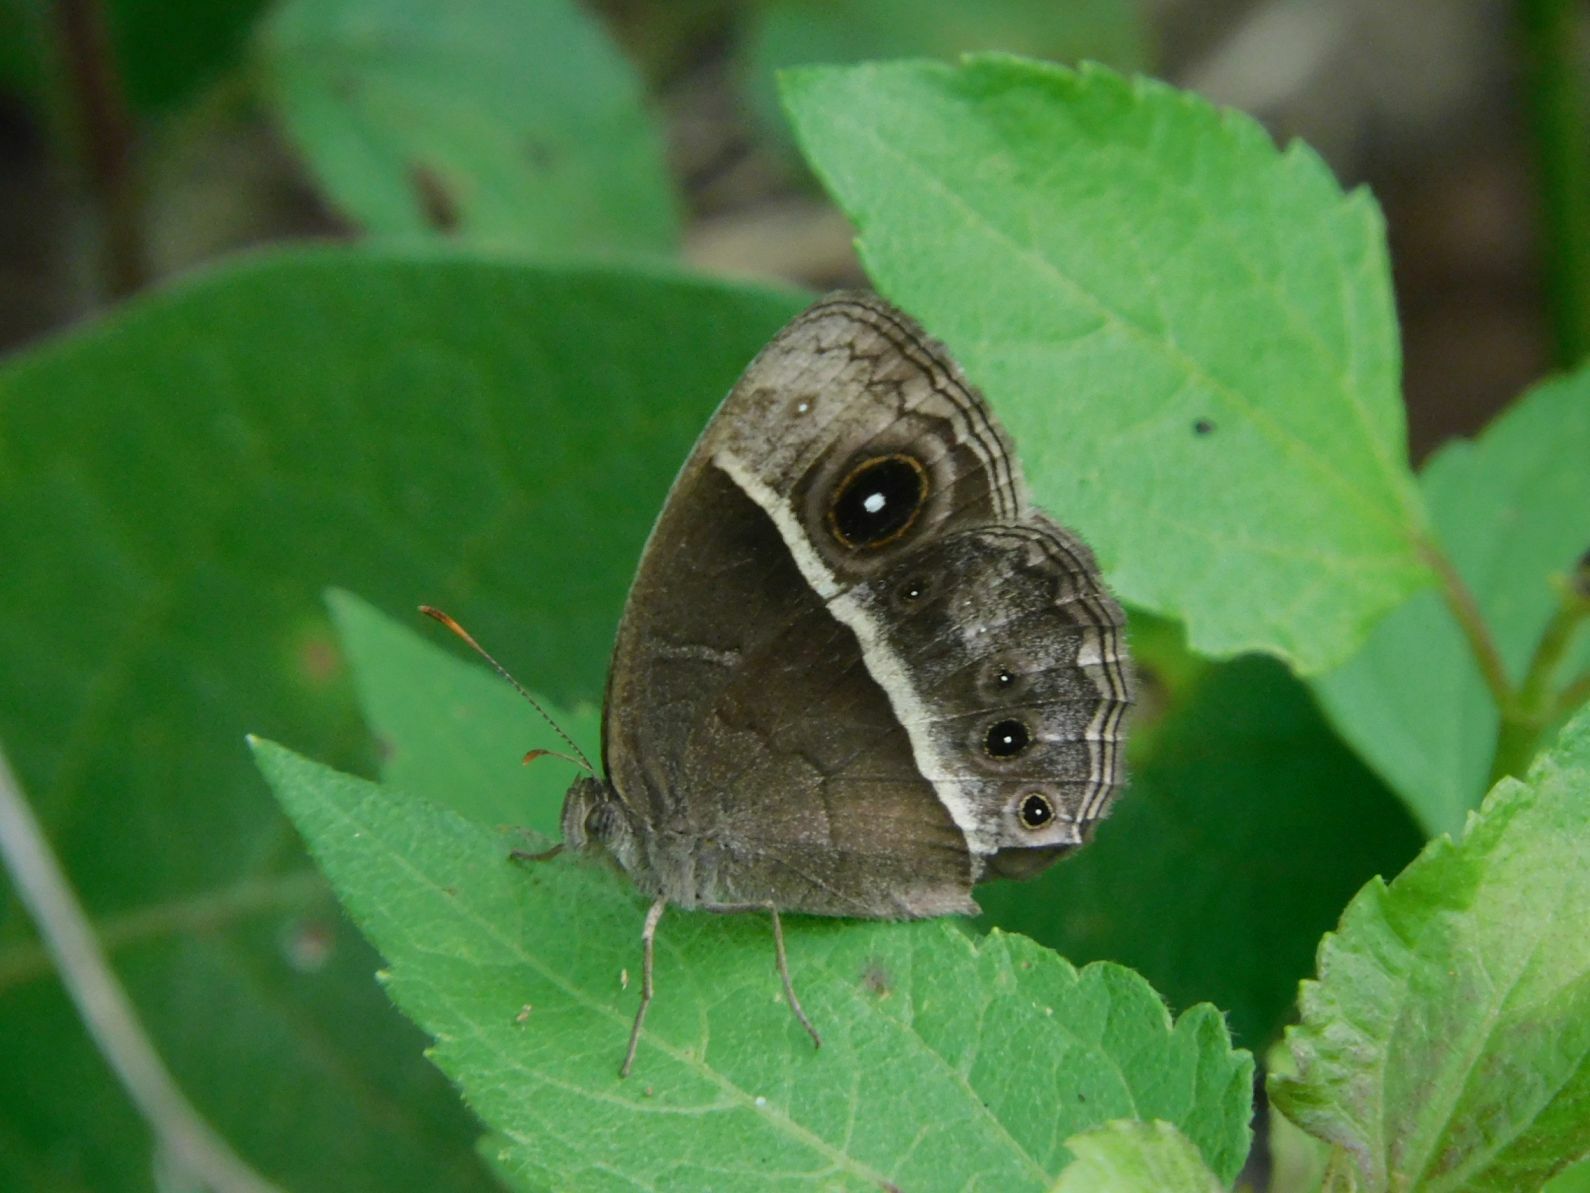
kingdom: Animalia
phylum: Arthropoda
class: Insecta
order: Lepidoptera
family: Nymphalidae
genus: Mycalesis
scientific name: Mycalesis rhacotis
